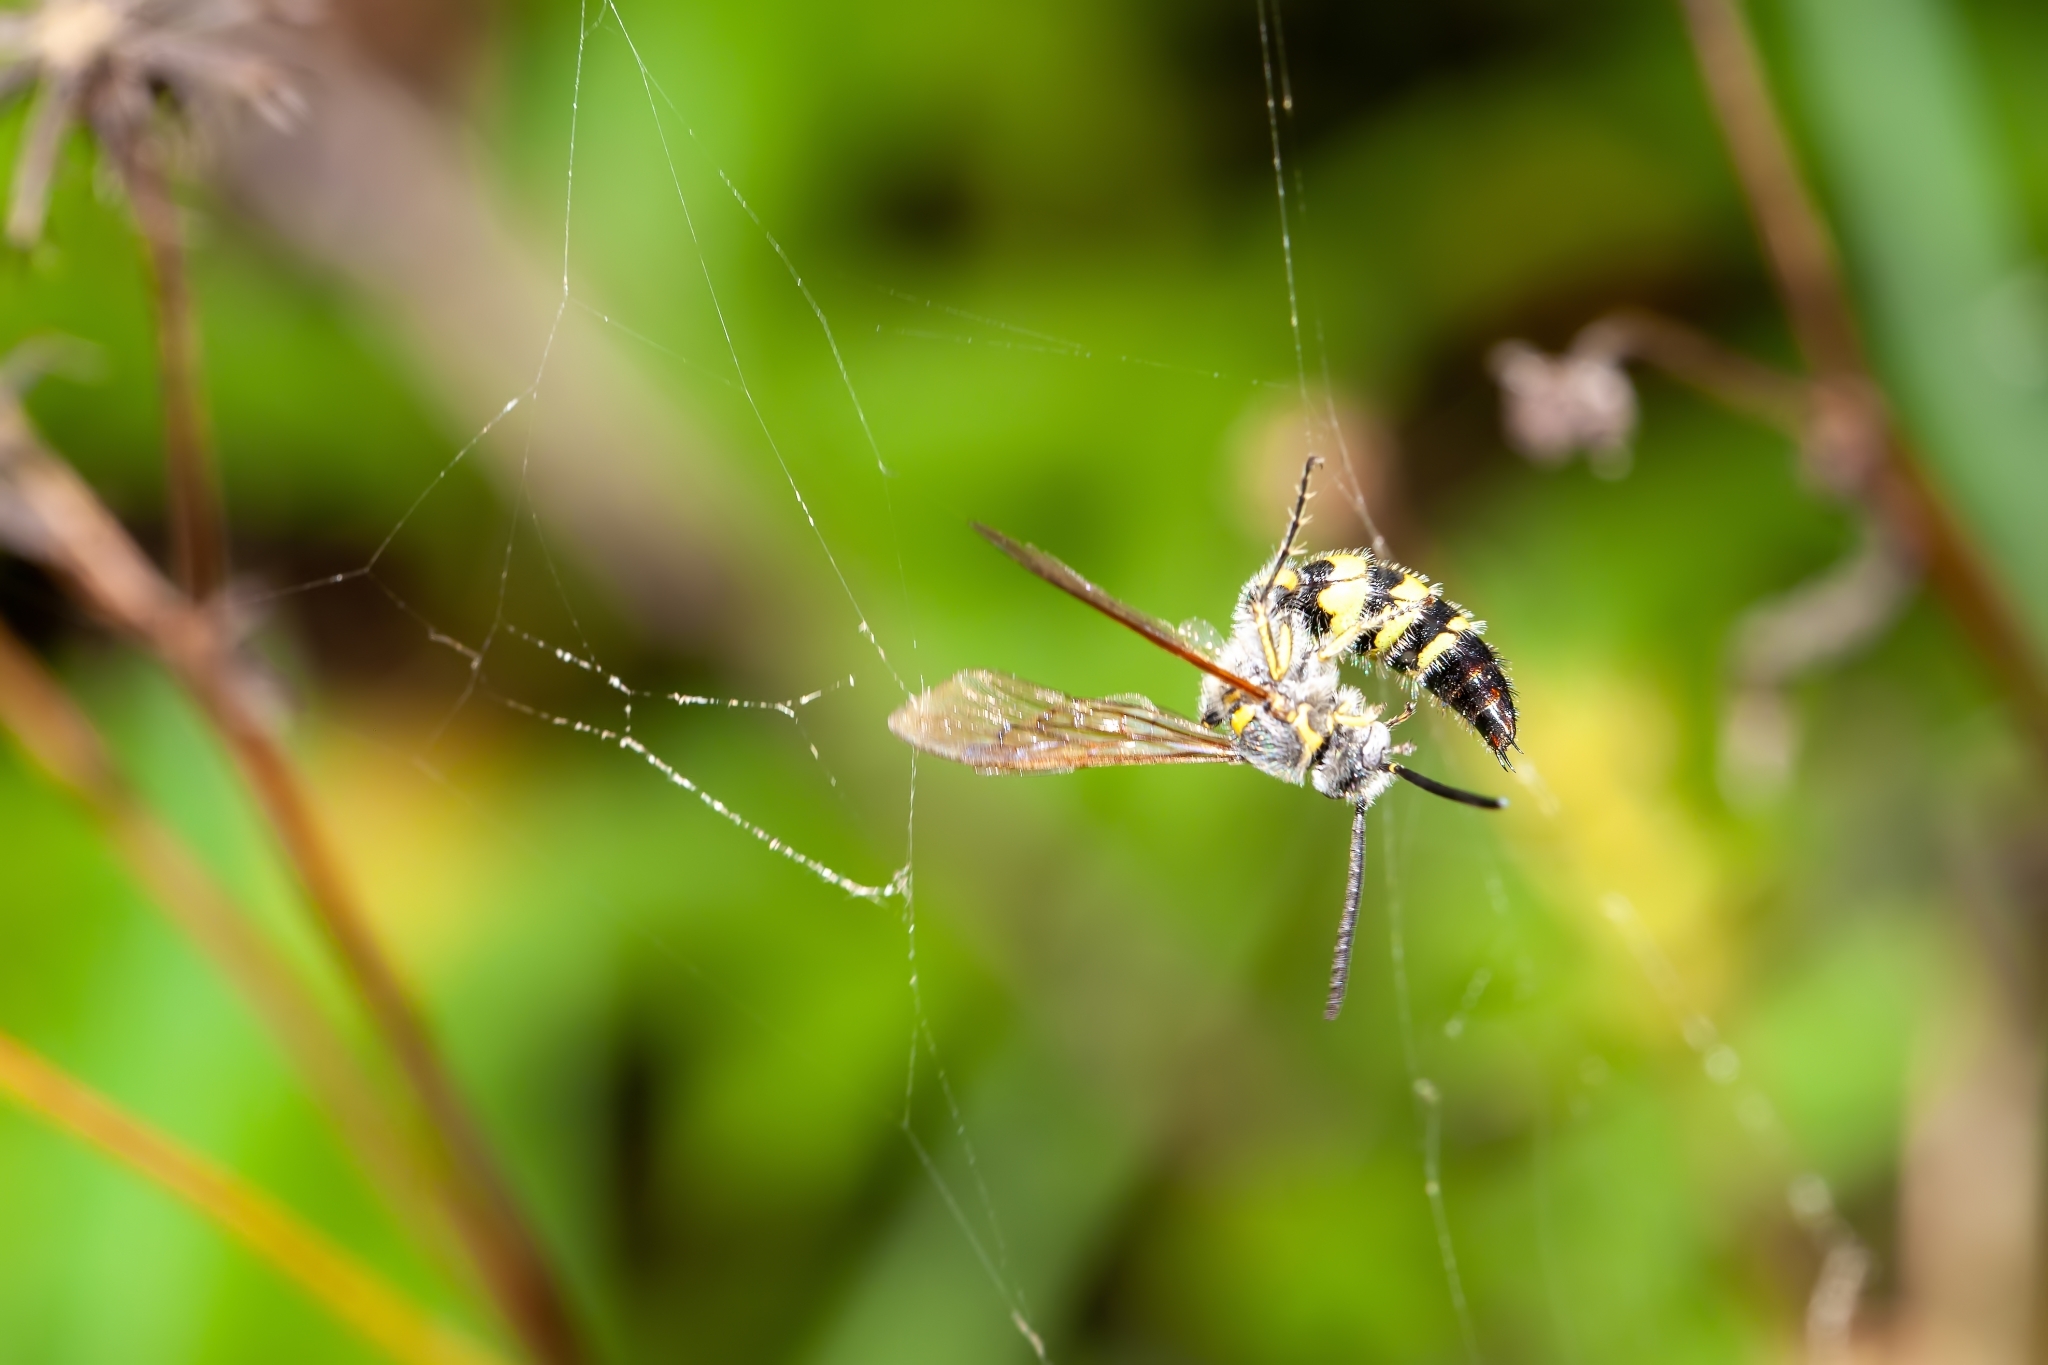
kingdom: Animalia
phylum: Arthropoda
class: Insecta
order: Hymenoptera
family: Scoliidae
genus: Dielis
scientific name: Dielis
